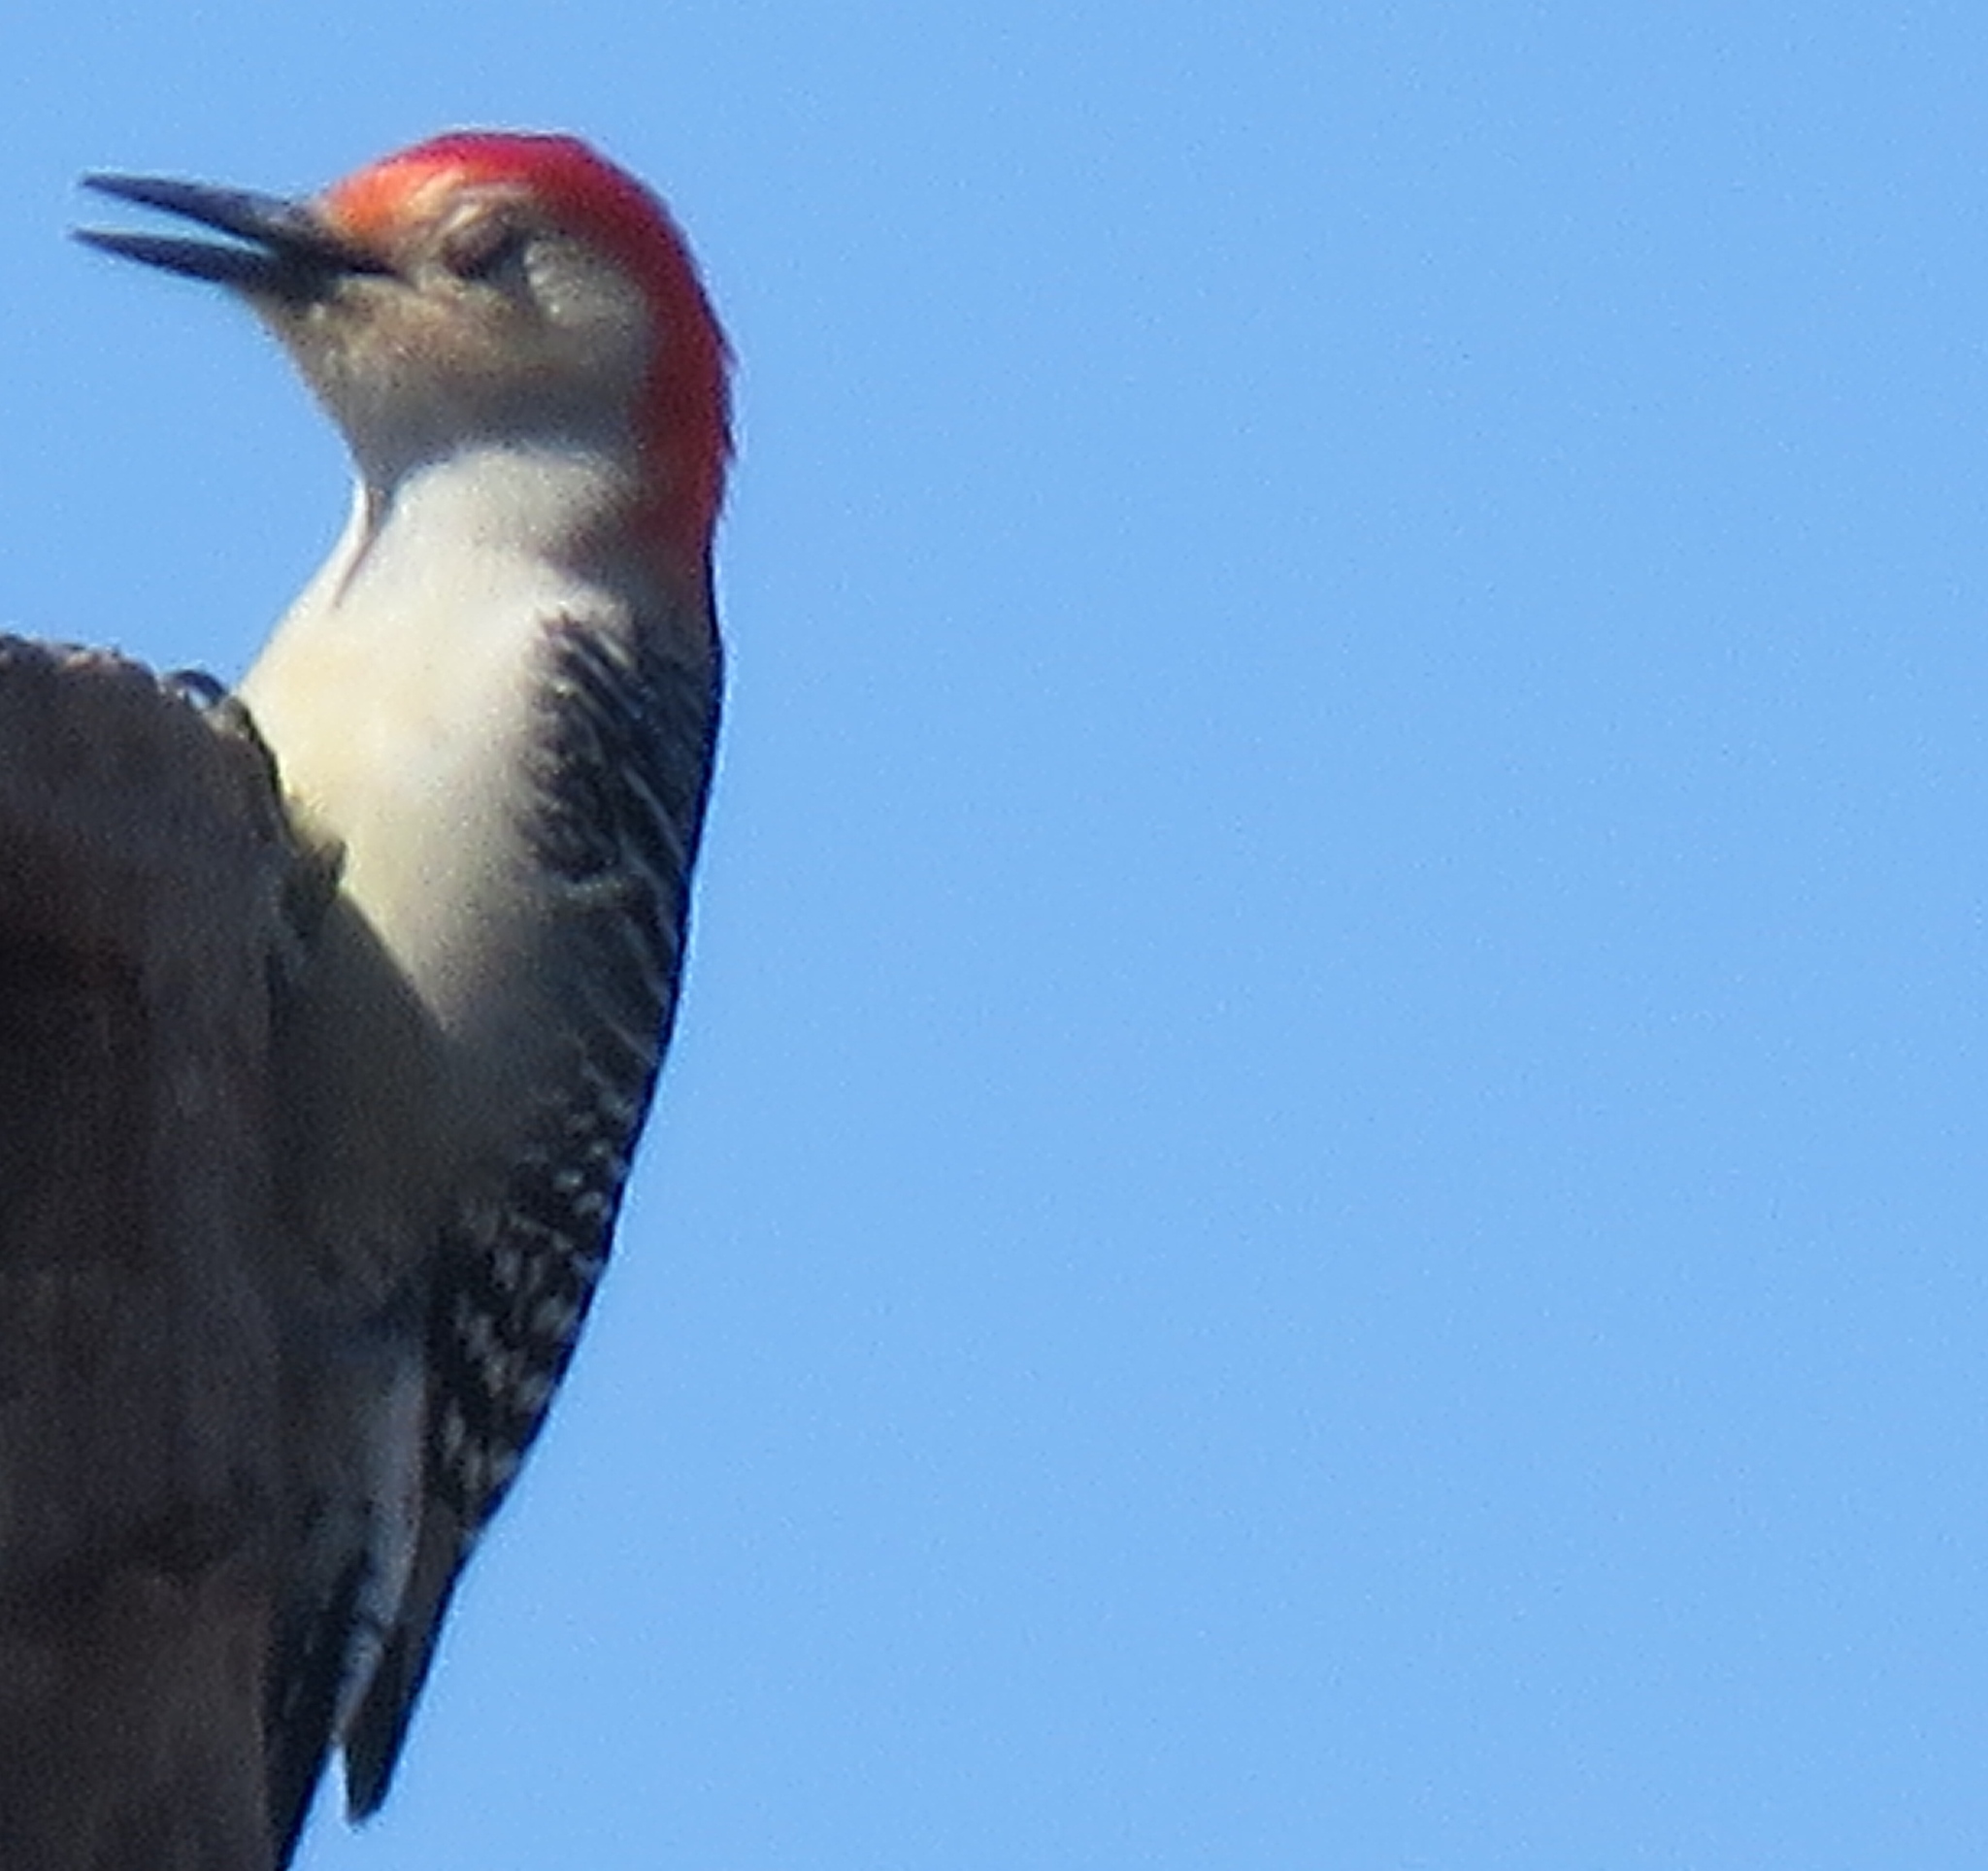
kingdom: Animalia
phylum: Chordata
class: Aves
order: Piciformes
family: Picidae
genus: Melanerpes
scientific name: Melanerpes carolinus
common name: Red-bellied woodpecker
